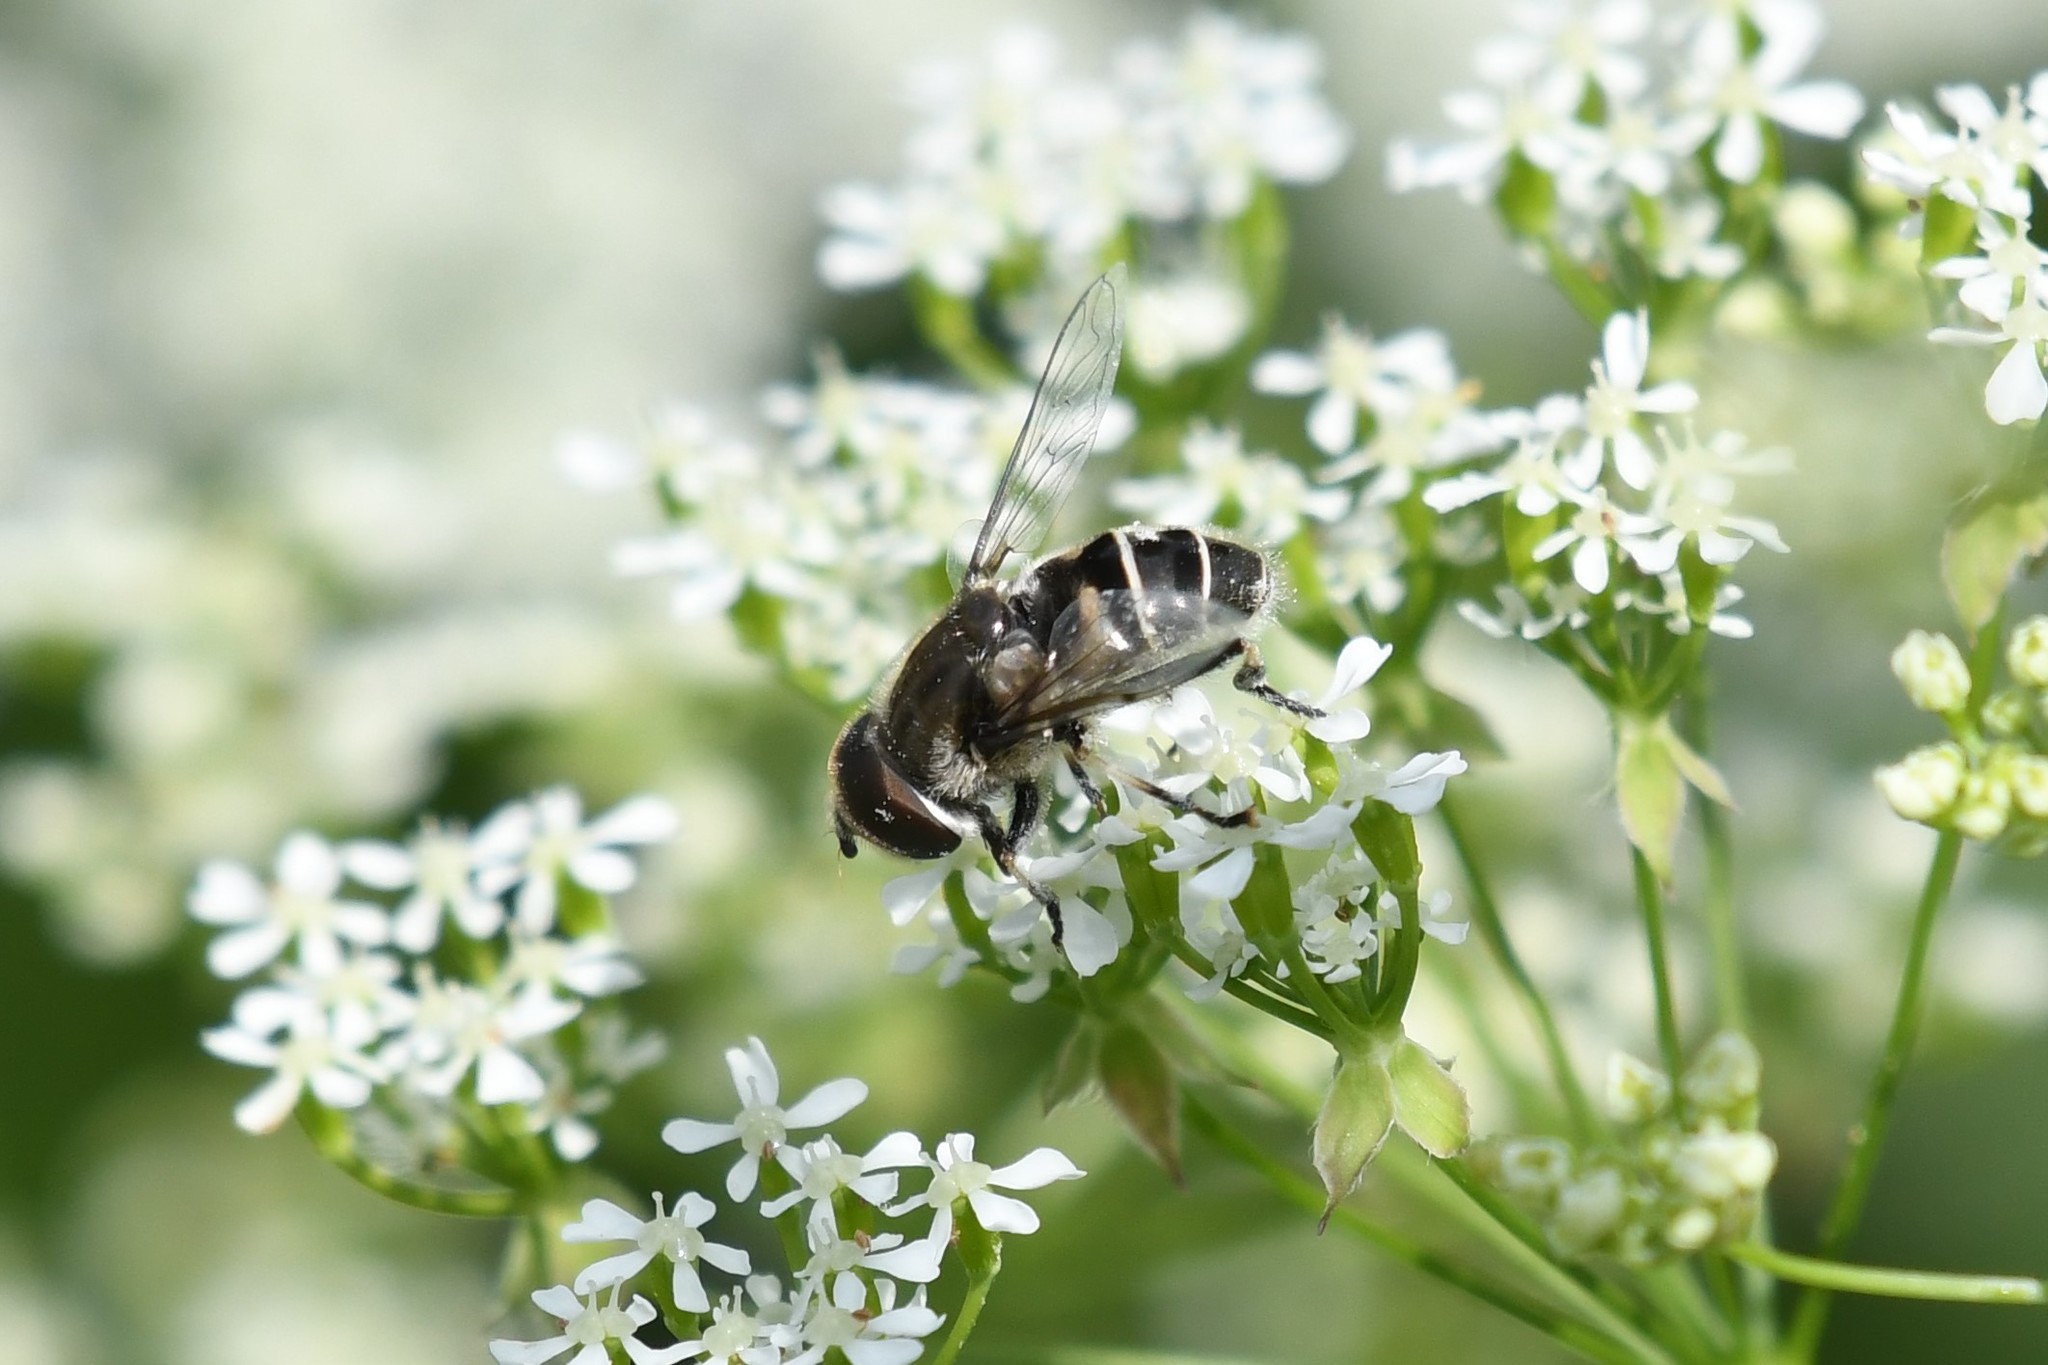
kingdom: Animalia
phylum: Arthropoda
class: Insecta
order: Diptera
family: Syrphidae
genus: Eristalis
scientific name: Eristalis dimidiata
